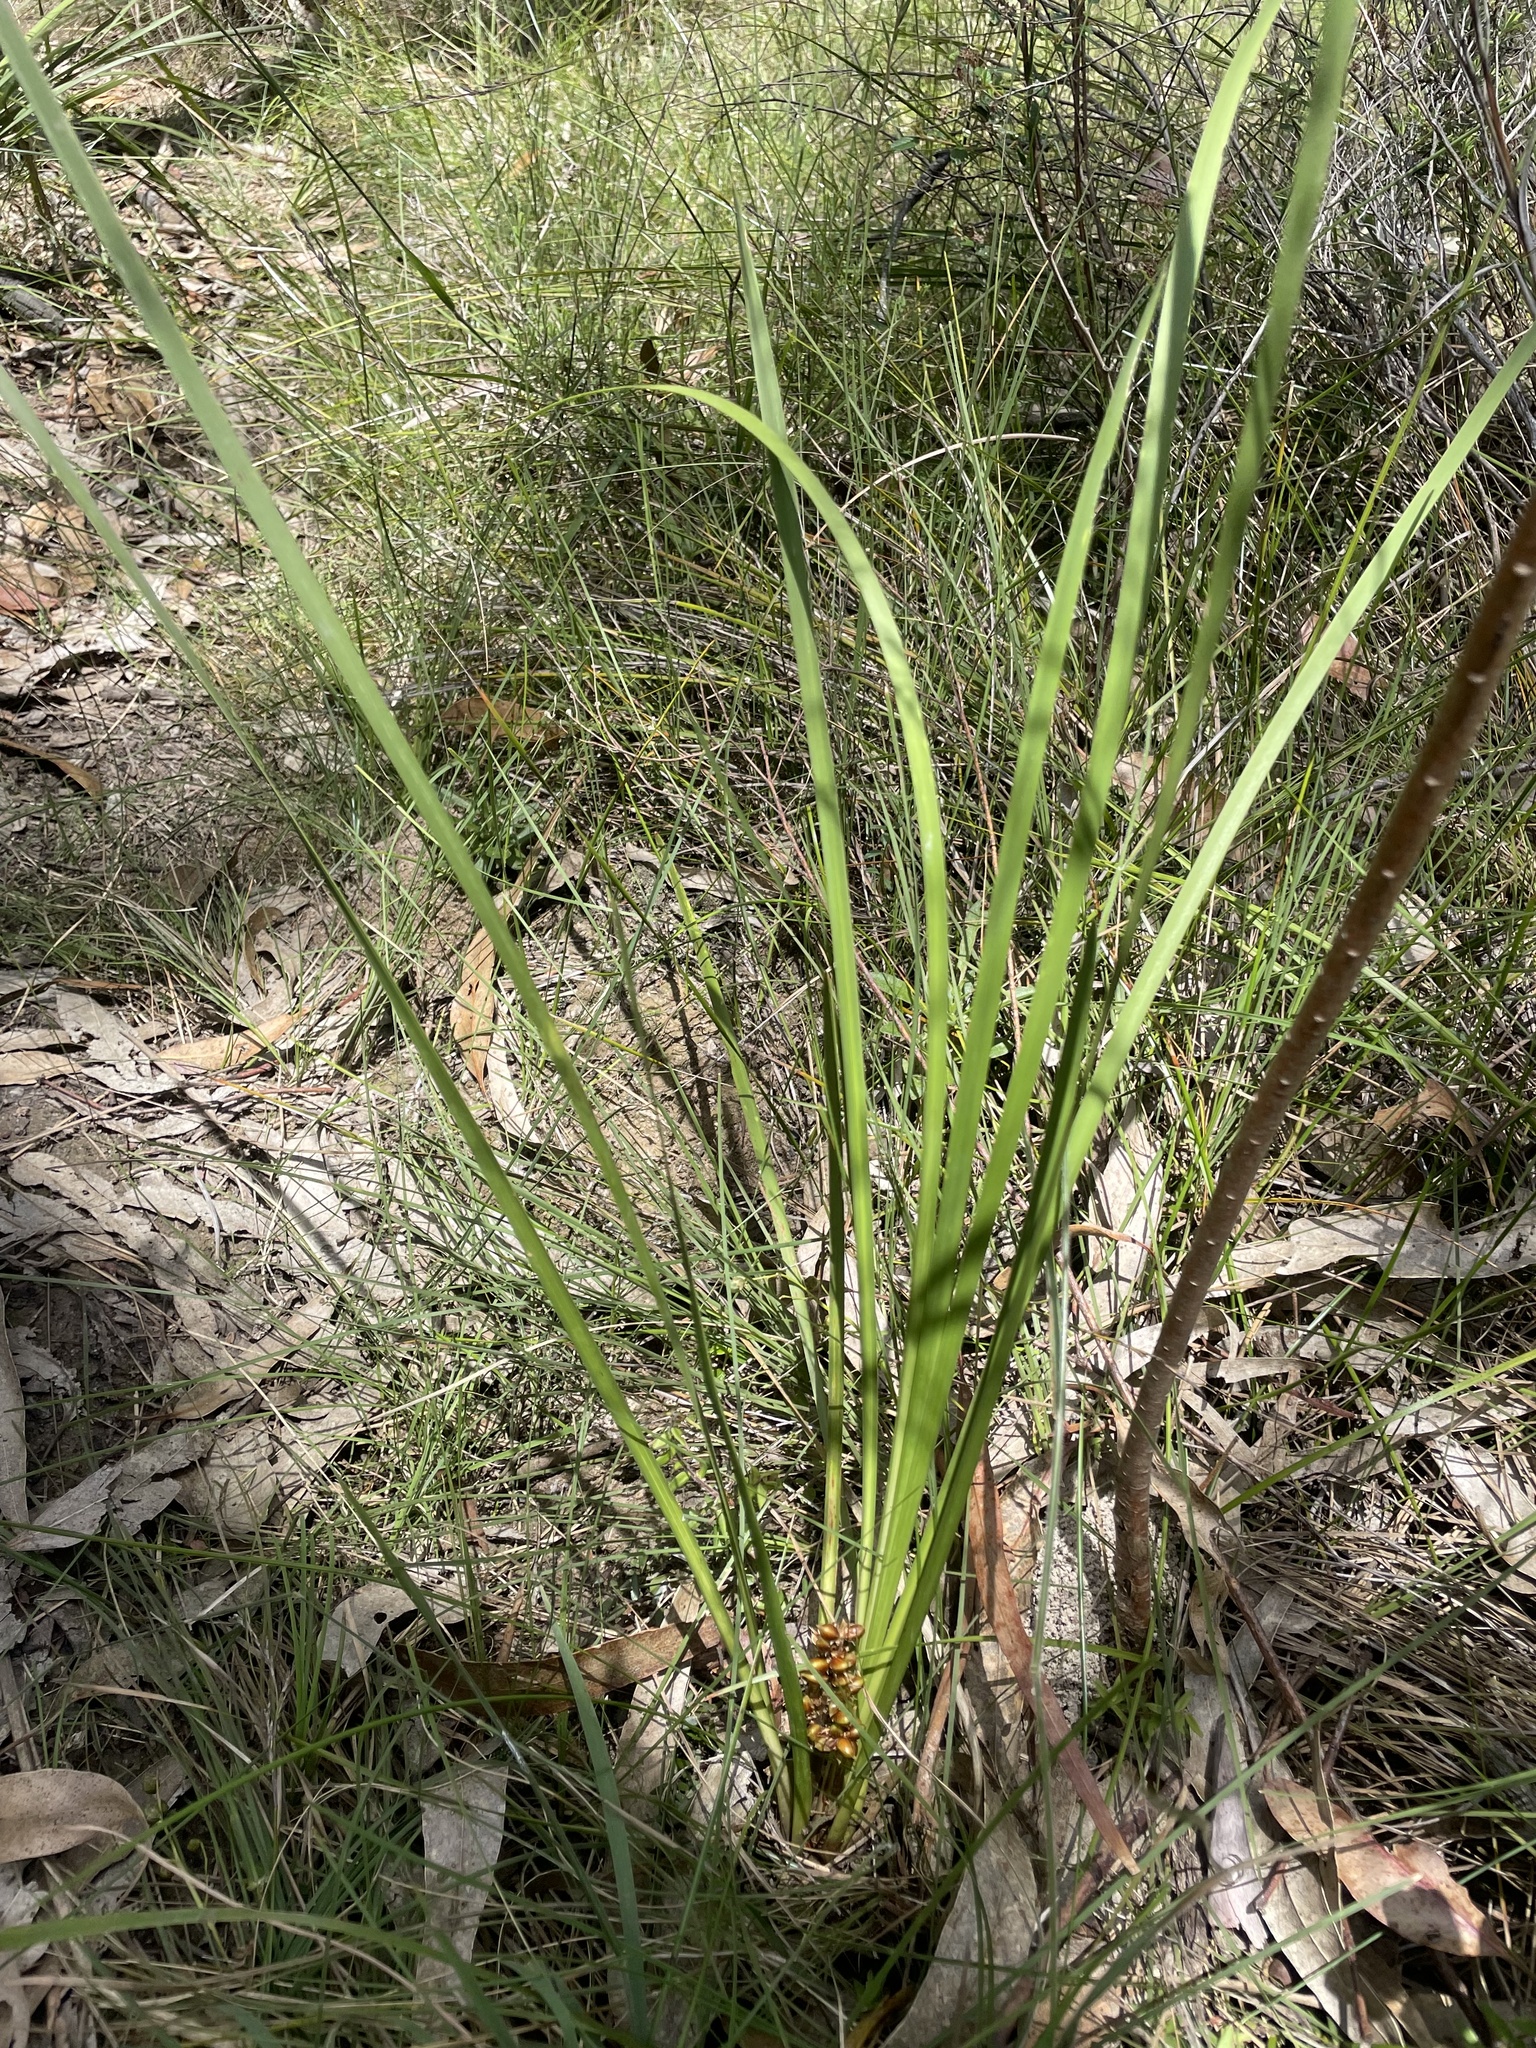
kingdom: Plantae
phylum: Tracheophyta
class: Liliopsida
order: Asparagales
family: Asparagaceae
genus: Lomandra
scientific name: Lomandra longifolia
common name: Longleaf mat-rush
